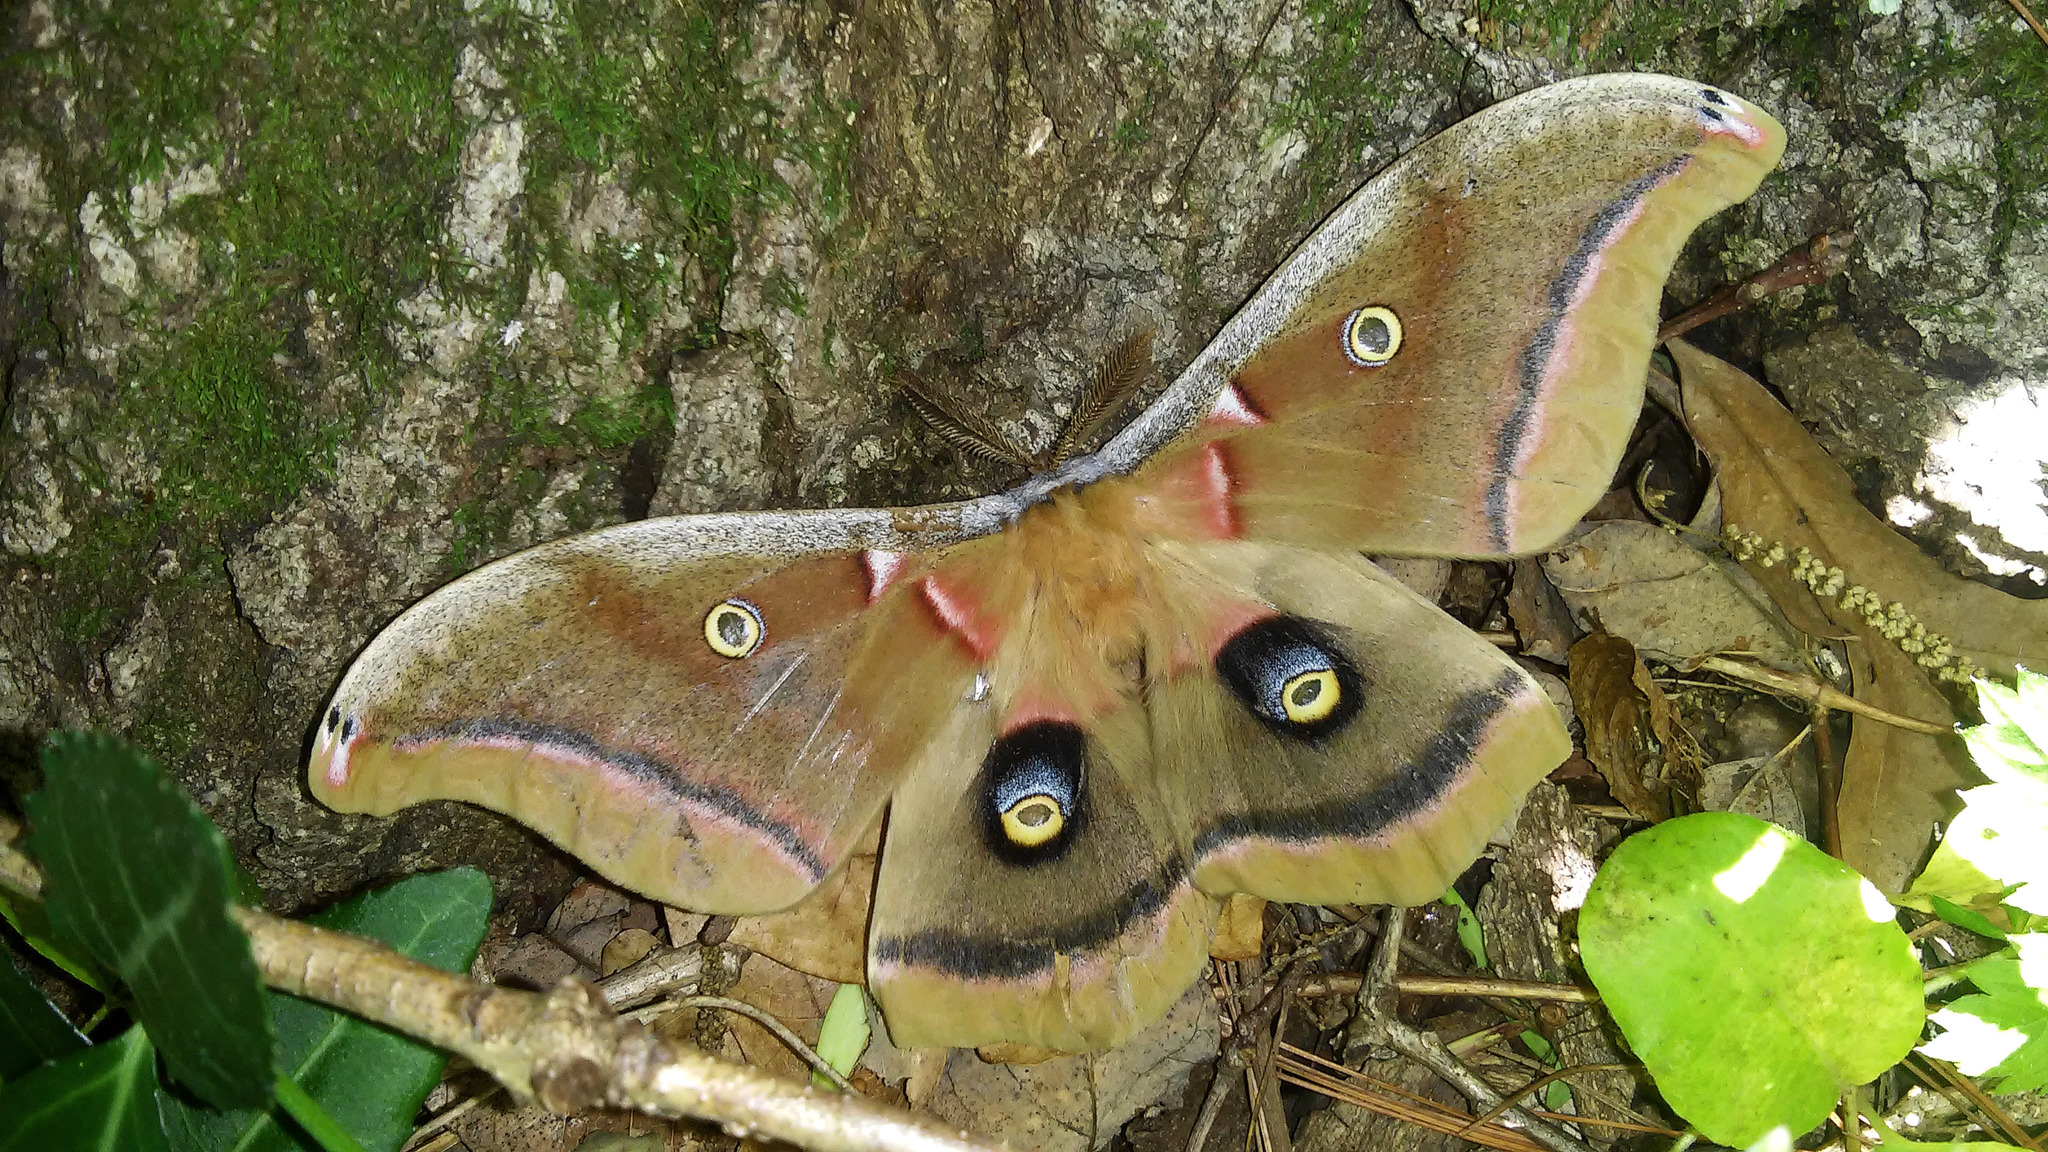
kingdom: Animalia
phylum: Arthropoda
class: Insecta
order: Lepidoptera
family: Saturniidae
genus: Antheraea
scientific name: Antheraea polyphemus
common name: Polyphemus moth
